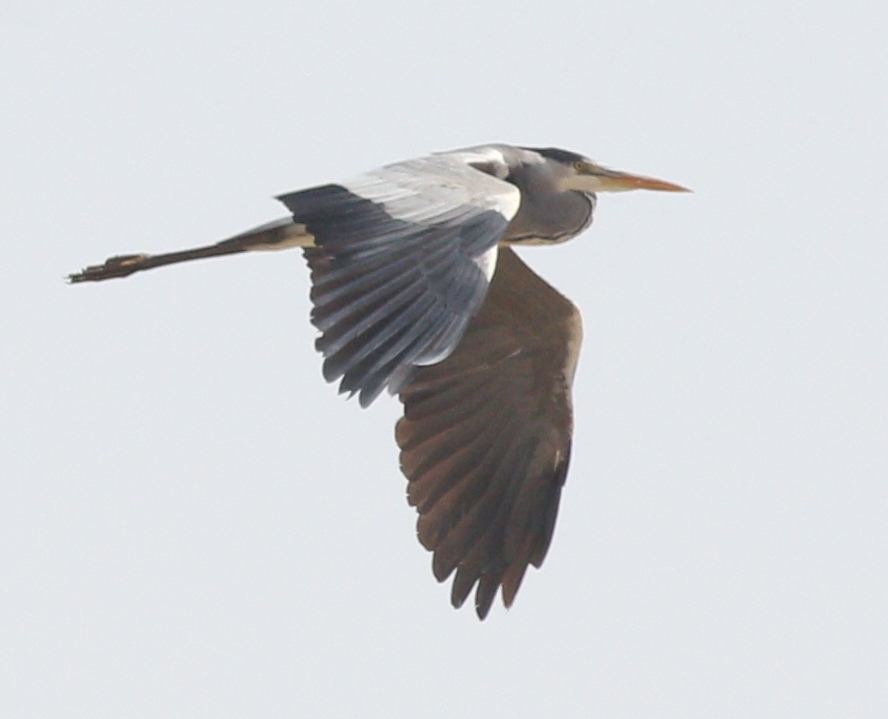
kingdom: Animalia
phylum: Chordata
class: Aves
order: Pelecaniformes
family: Ardeidae
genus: Ardea
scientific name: Ardea cinerea
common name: Grey heron
